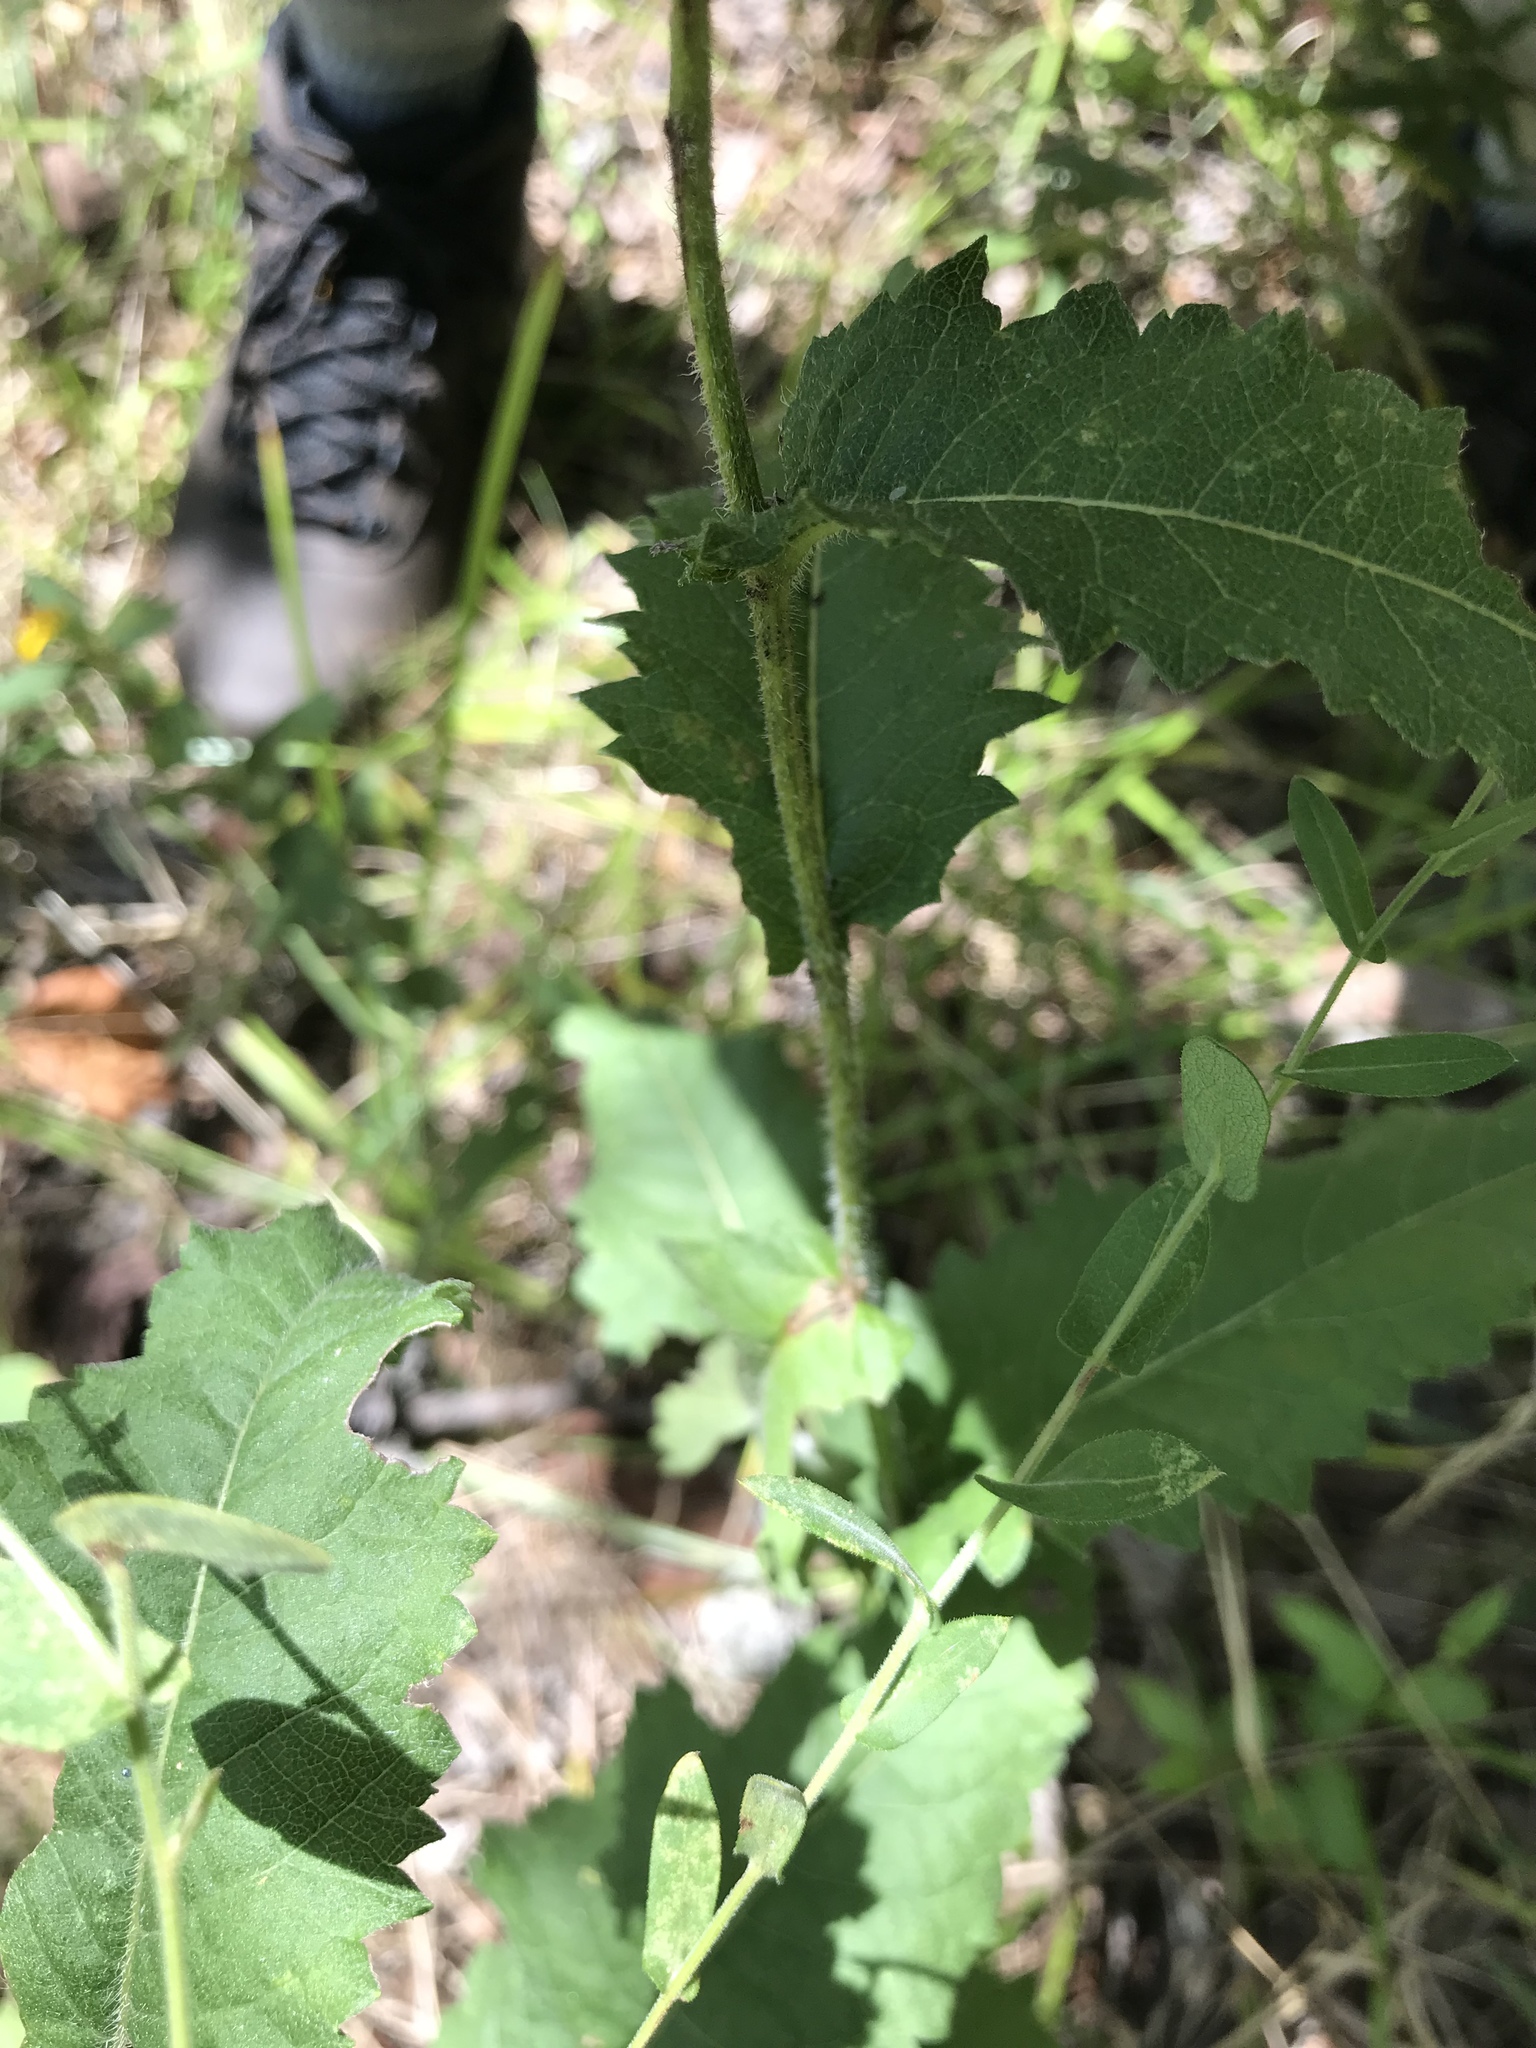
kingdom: Plantae
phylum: Tracheophyta
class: Magnoliopsida
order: Asterales
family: Asteraceae
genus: Parthenium
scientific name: Parthenium auriculatum
